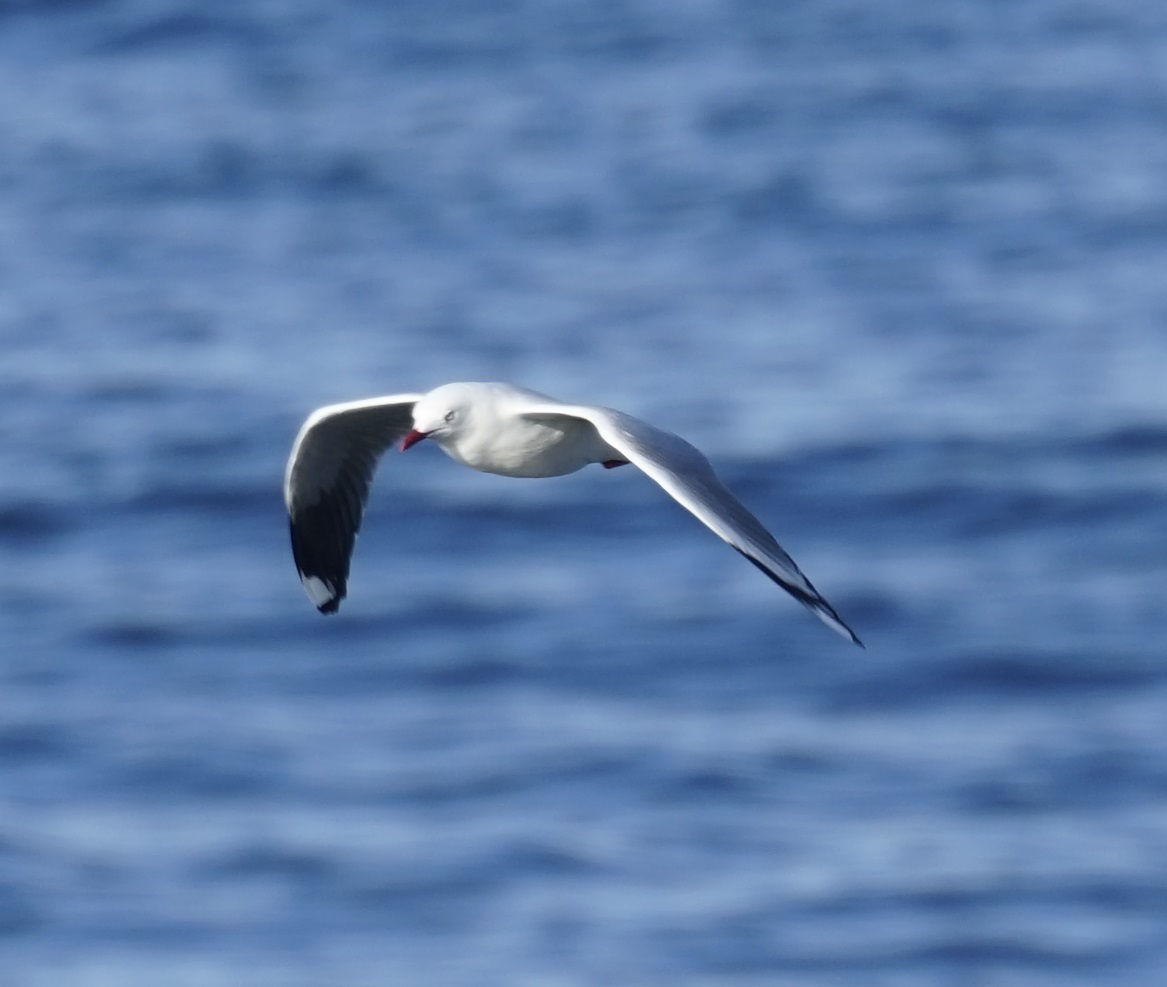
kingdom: Animalia
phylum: Chordata
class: Aves
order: Charadriiformes
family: Laridae
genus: Chroicocephalus
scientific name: Chroicocephalus novaehollandiae
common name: Silver gull
